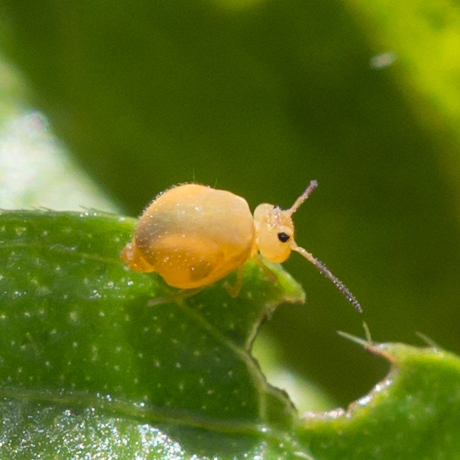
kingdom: Animalia
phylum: Arthropoda
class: Collembola
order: Symphypleona
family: Bourletiellidae
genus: Bourletiella
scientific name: Bourletiella arvalis
